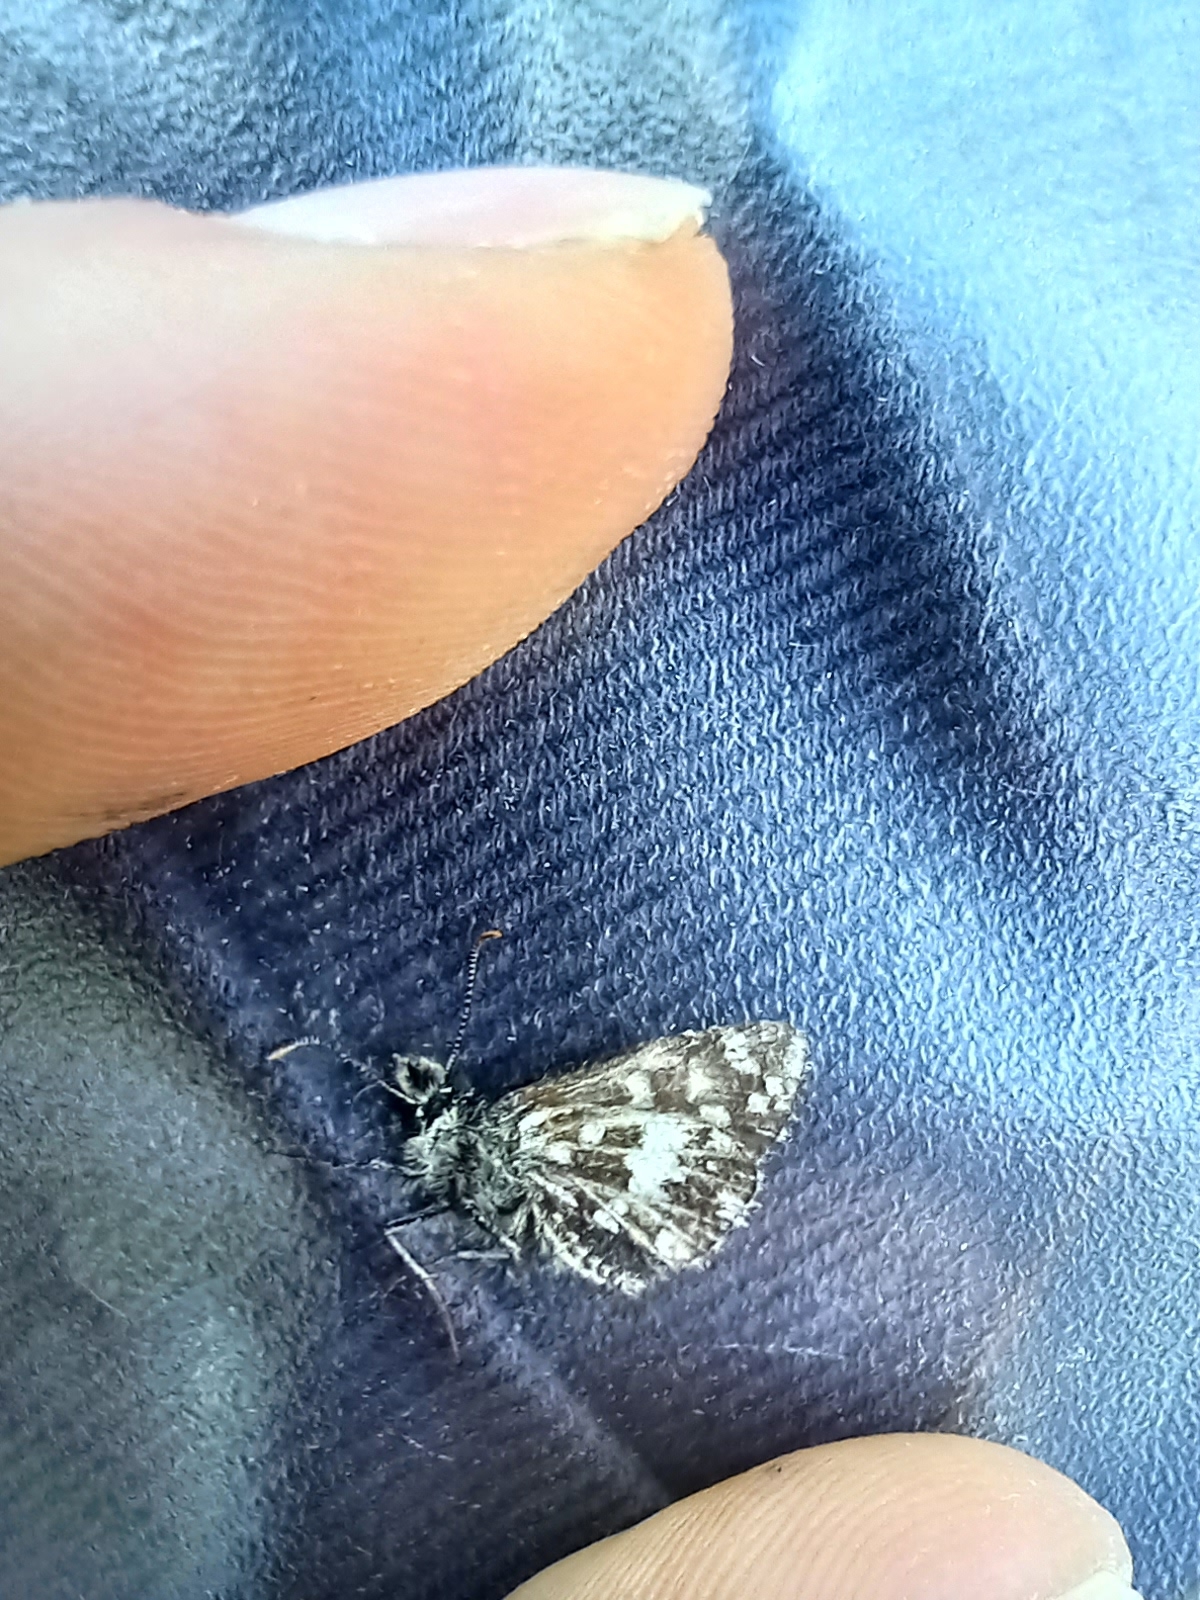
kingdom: Animalia
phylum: Arthropoda
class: Insecta
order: Lepidoptera
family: Hesperiidae
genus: Pyrgus
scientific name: Pyrgus malvae
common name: Grizzled skipper
